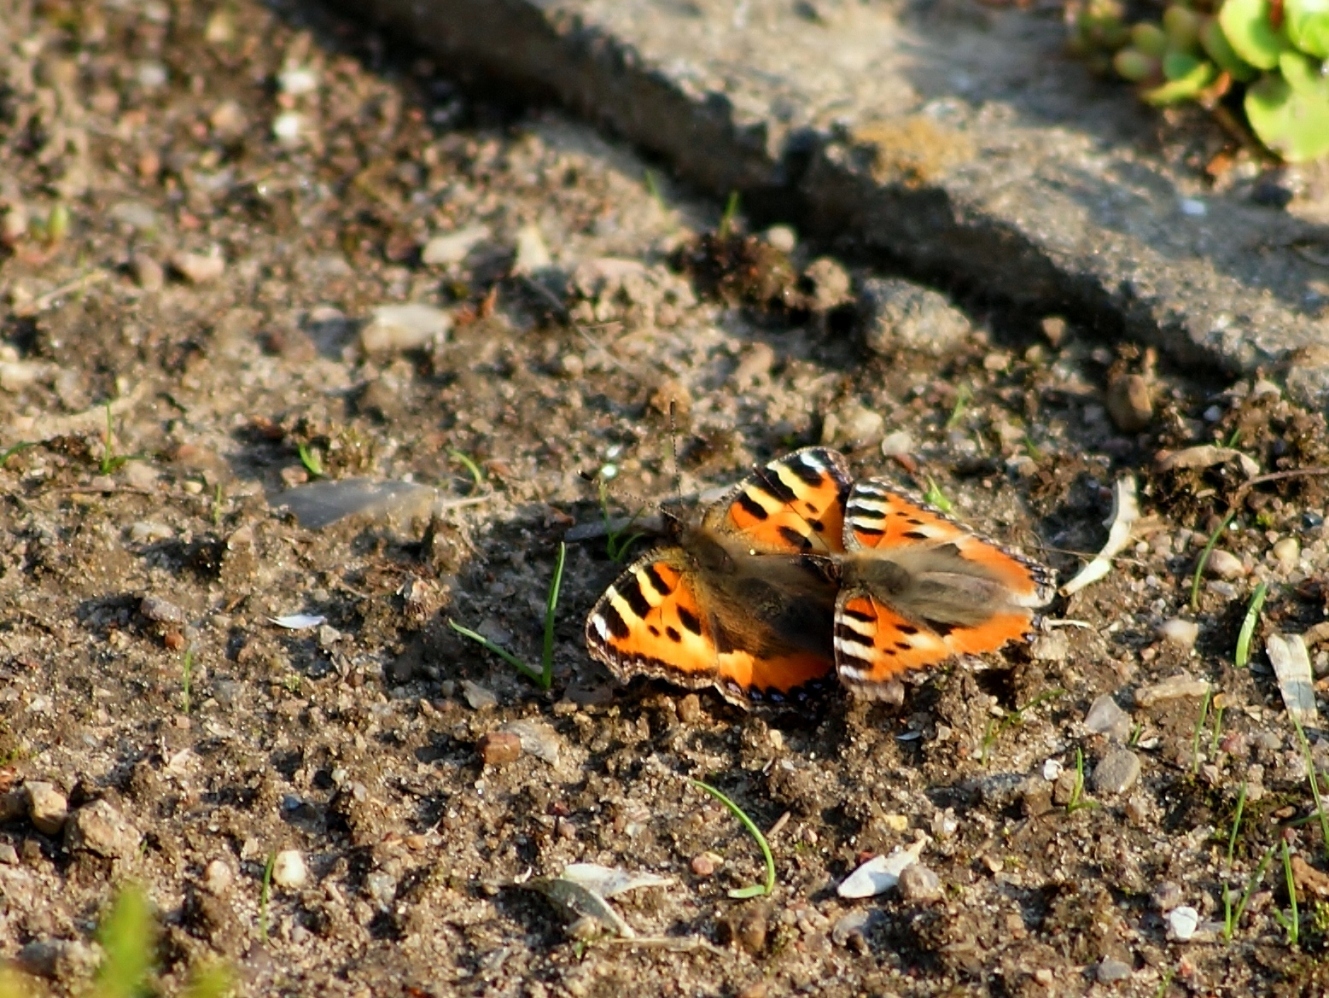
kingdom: Animalia
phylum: Arthropoda
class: Insecta
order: Lepidoptera
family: Nymphalidae
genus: Aglais
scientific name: Aglais urticae
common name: Small tortoiseshell
